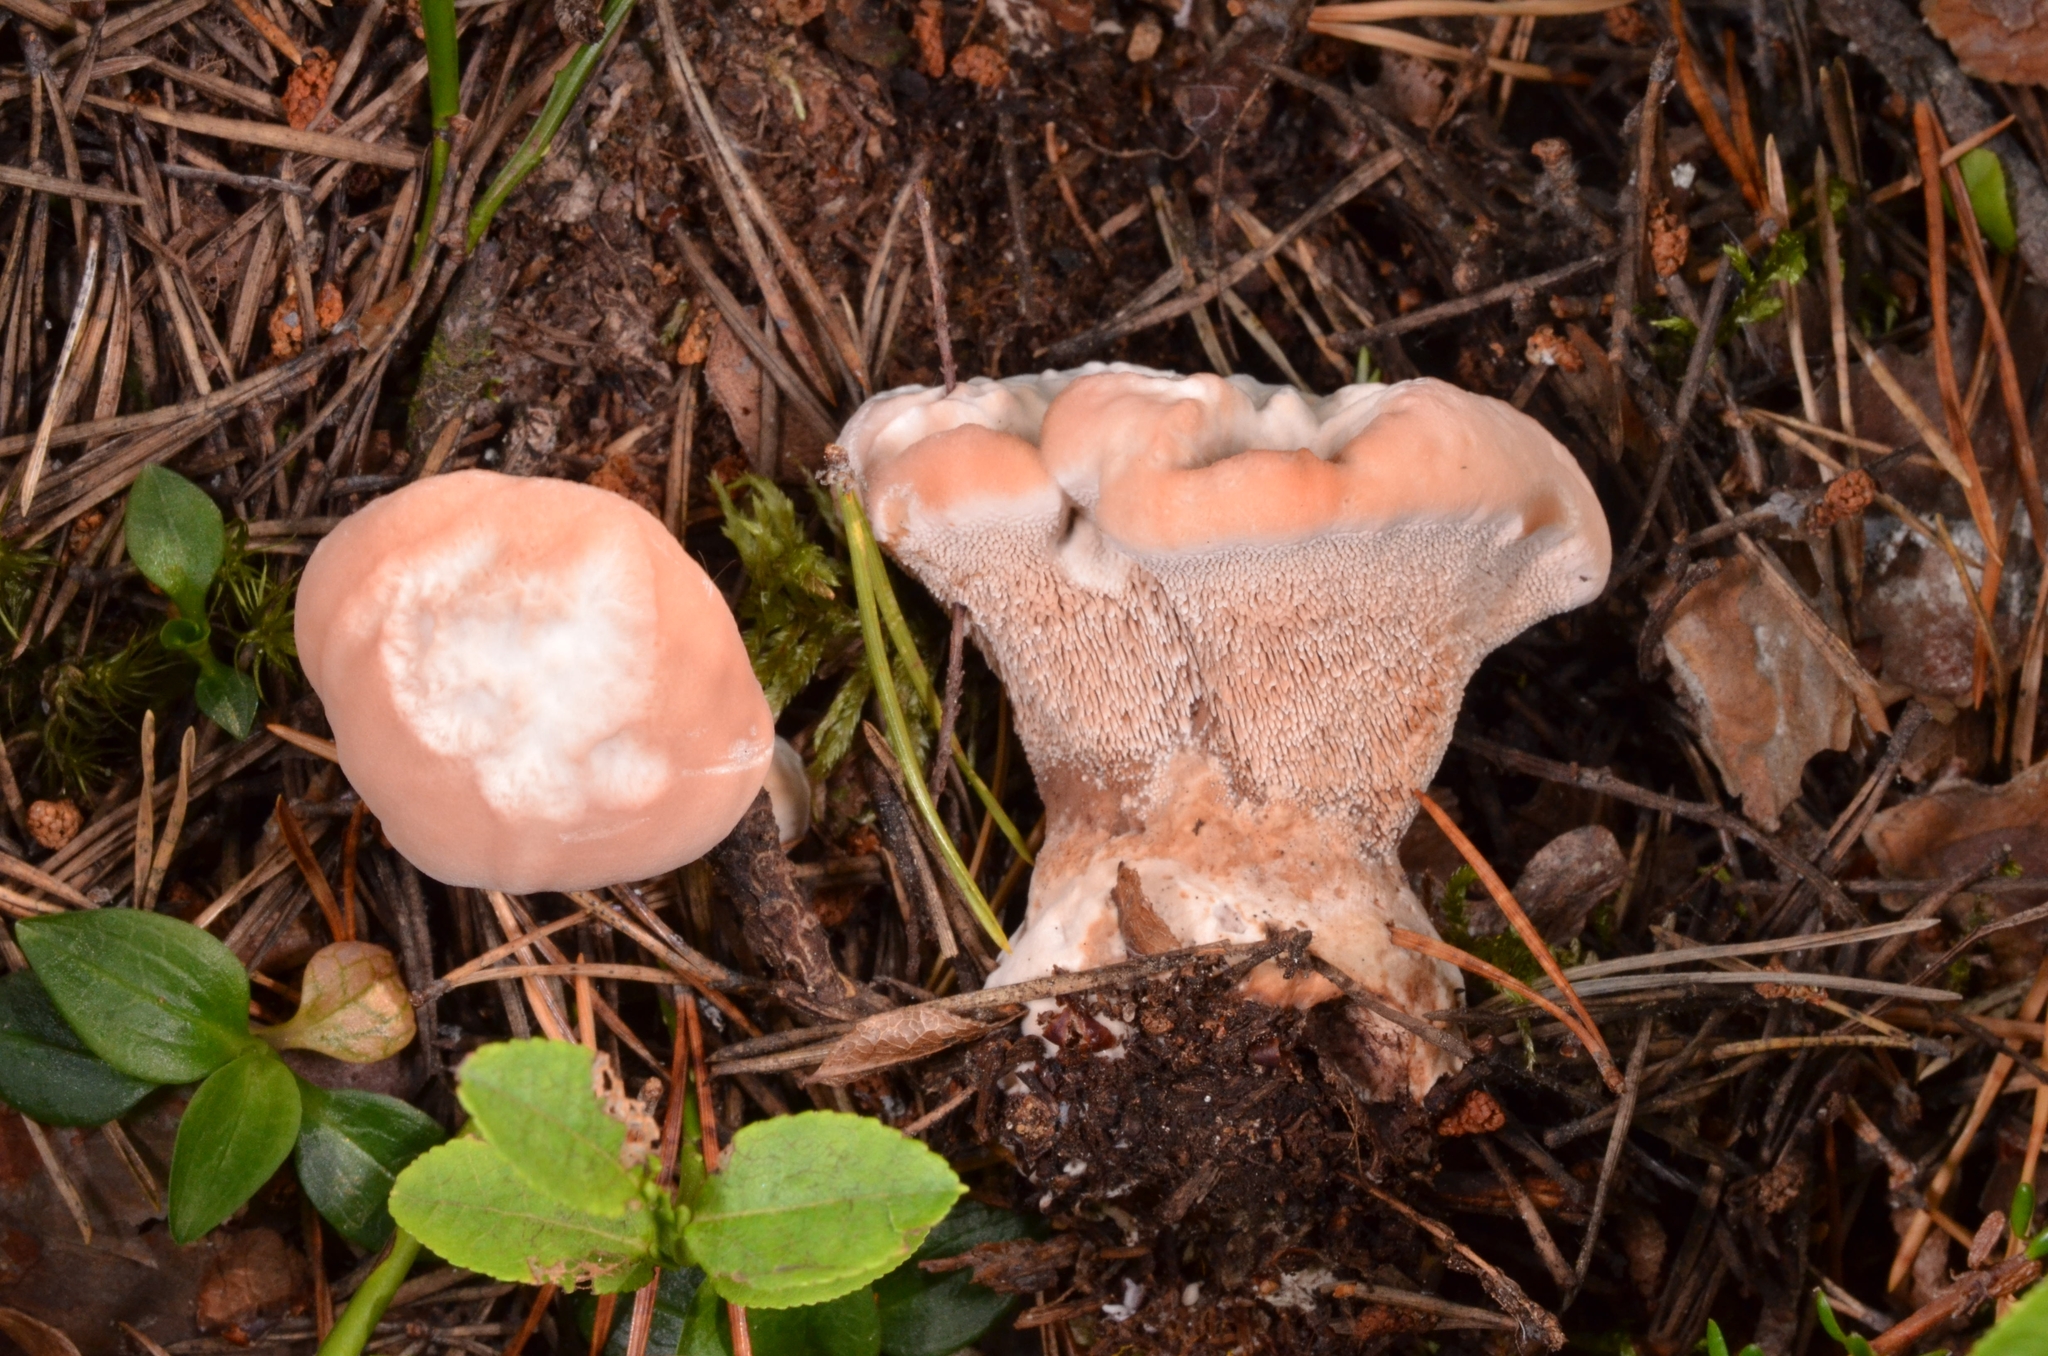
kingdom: Fungi
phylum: Basidiomycota
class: Agaricomycetes
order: Thelephorales
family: Bankeraceae
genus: Hydnellum
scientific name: Hydnellum ferrugineum
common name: Mealy tooth
